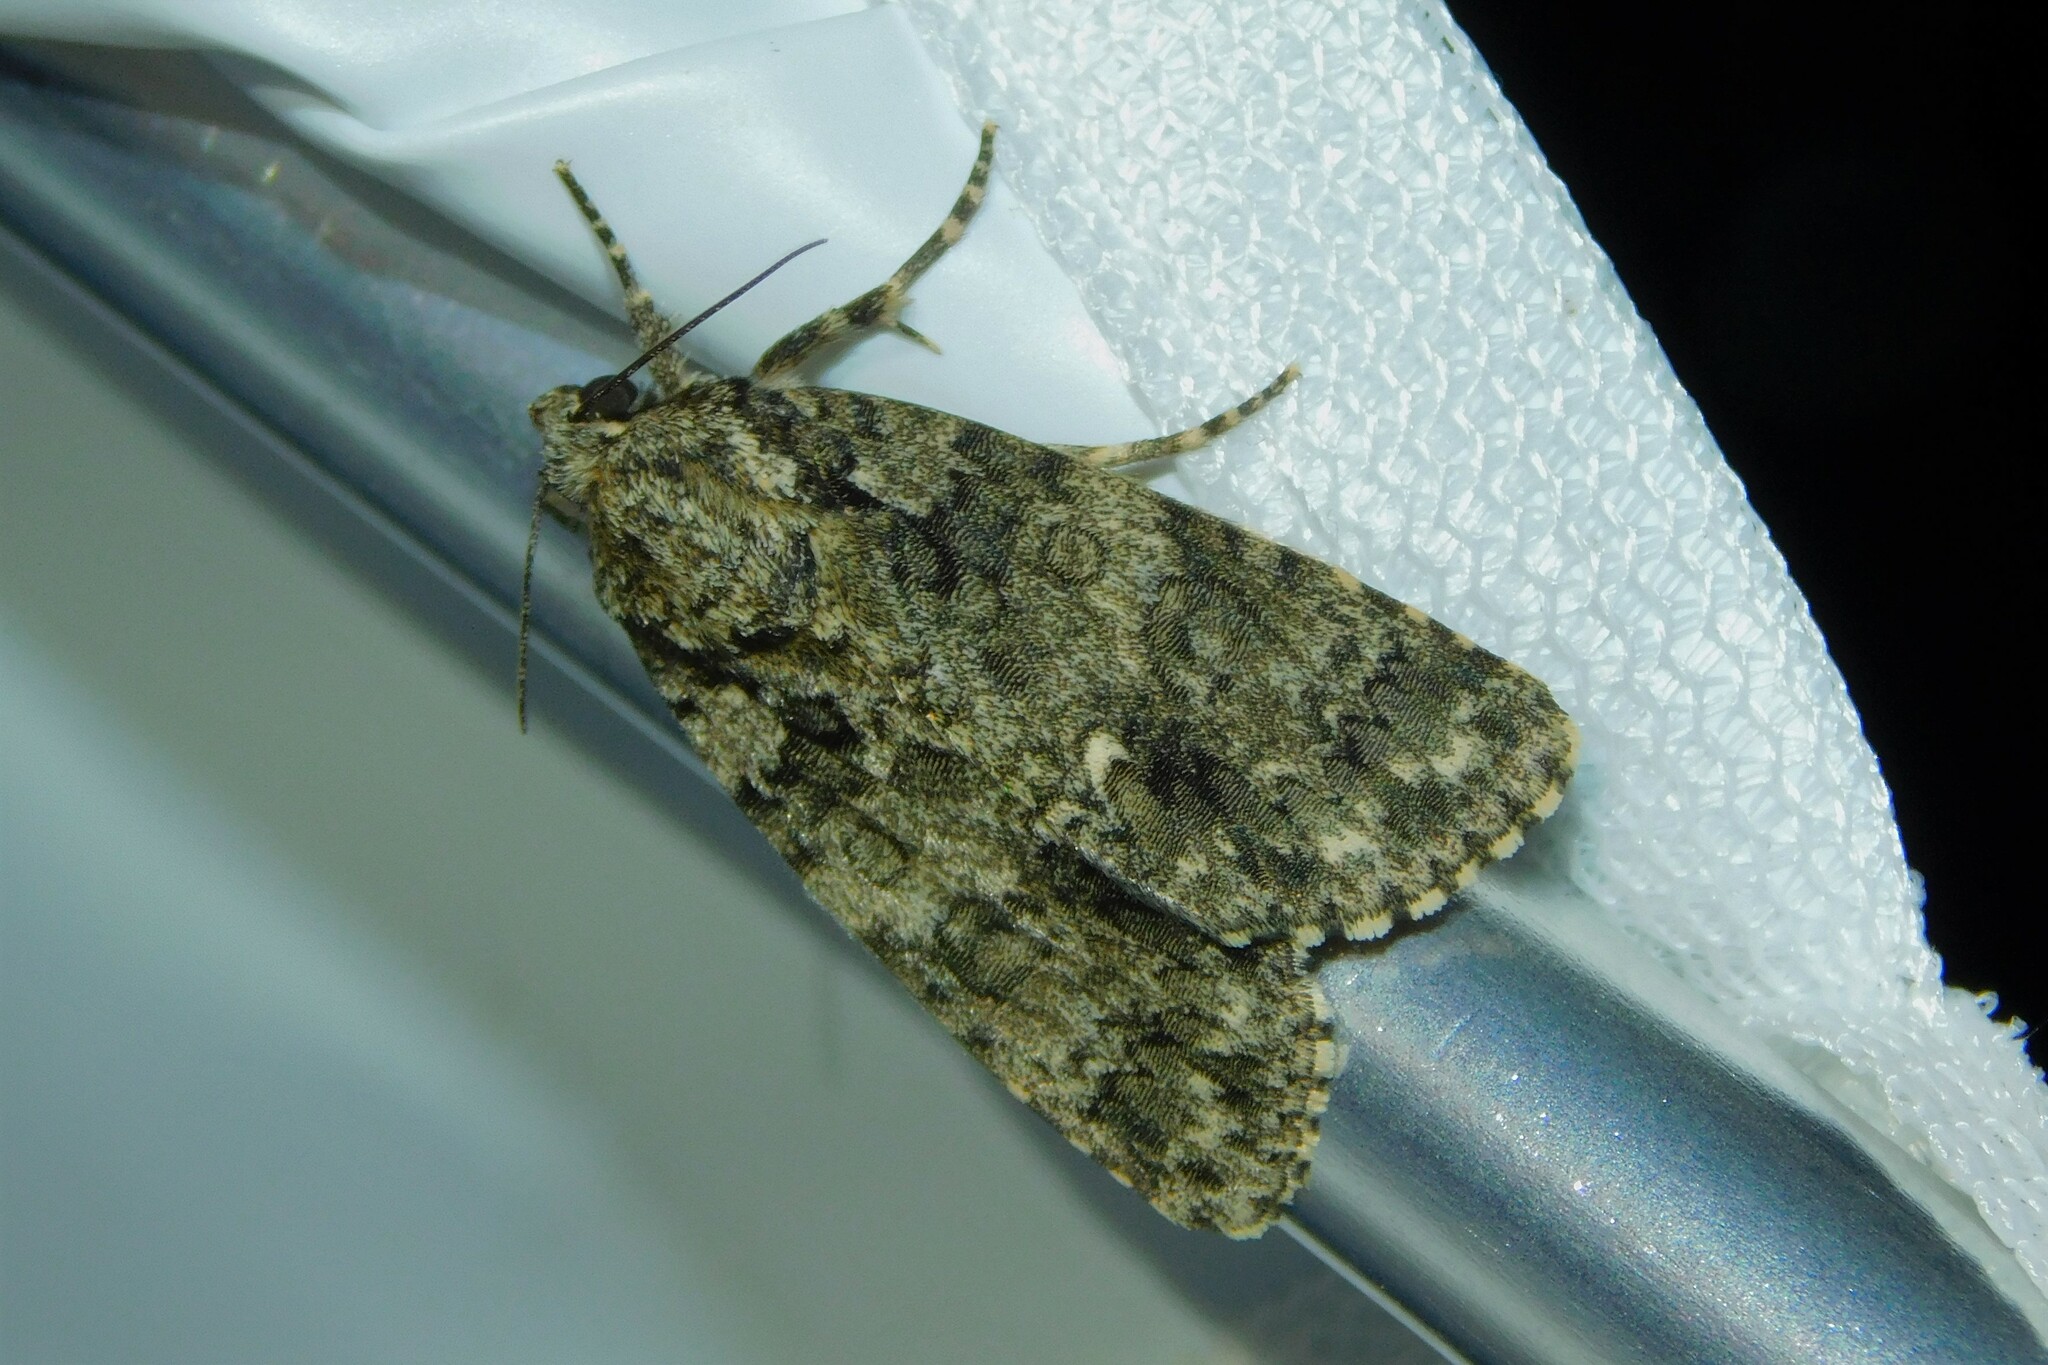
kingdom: Animalia
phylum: Arthropoda
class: Insecta
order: Lepidoptera
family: Noctuidae
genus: Acronicta
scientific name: Acronicta rumicis
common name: Knot grass
